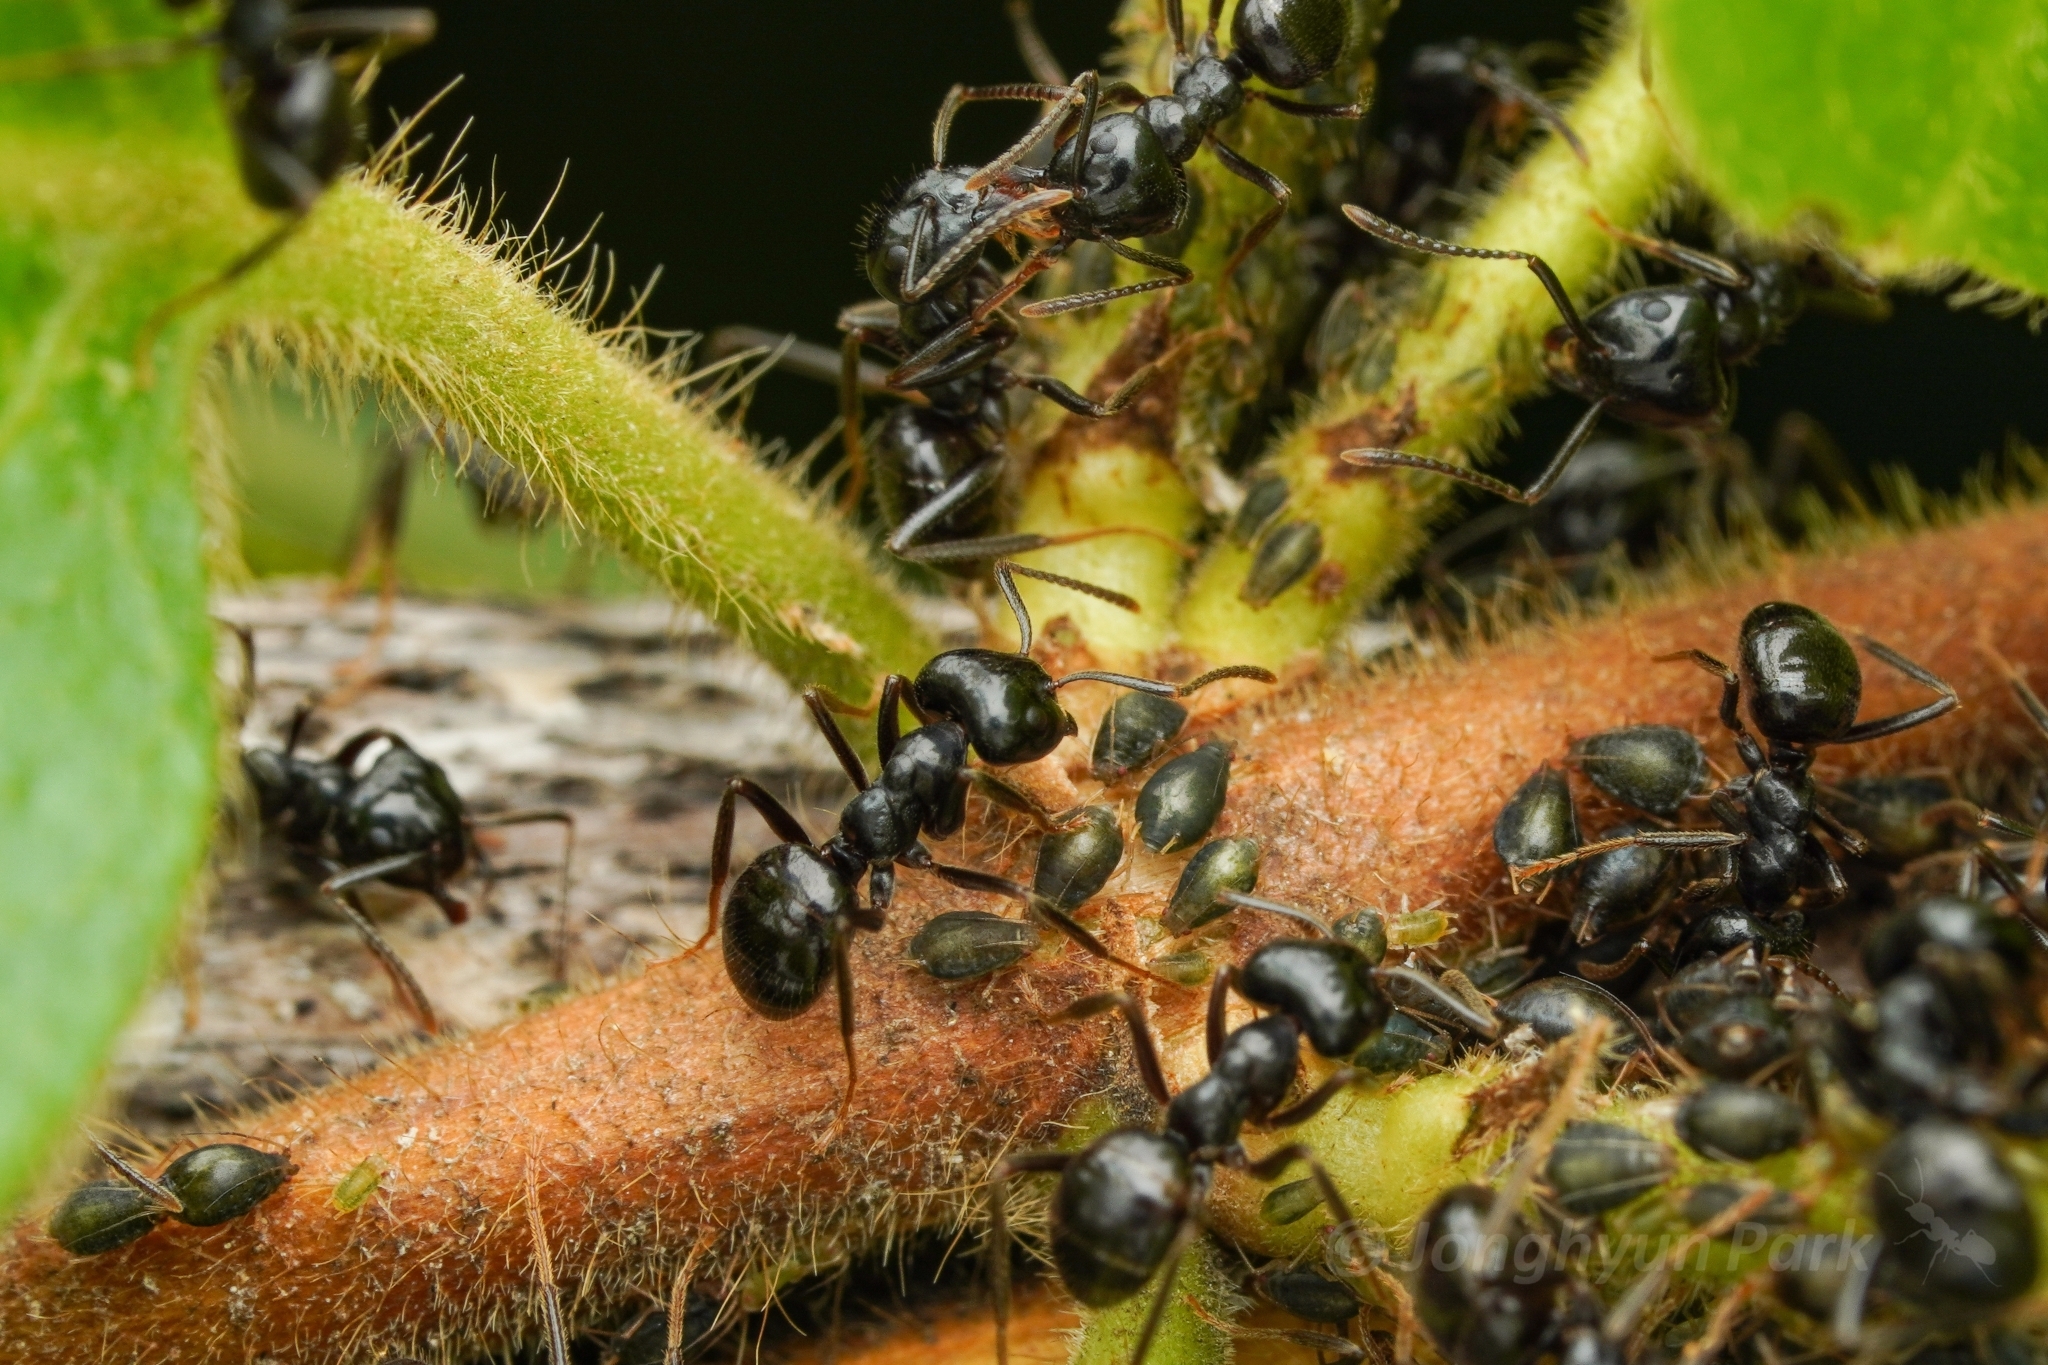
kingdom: Animalia
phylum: Arthropoda
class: Insecta
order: Hymenoptera
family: Formicidae
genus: Lasius
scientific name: Lasius spathepus
